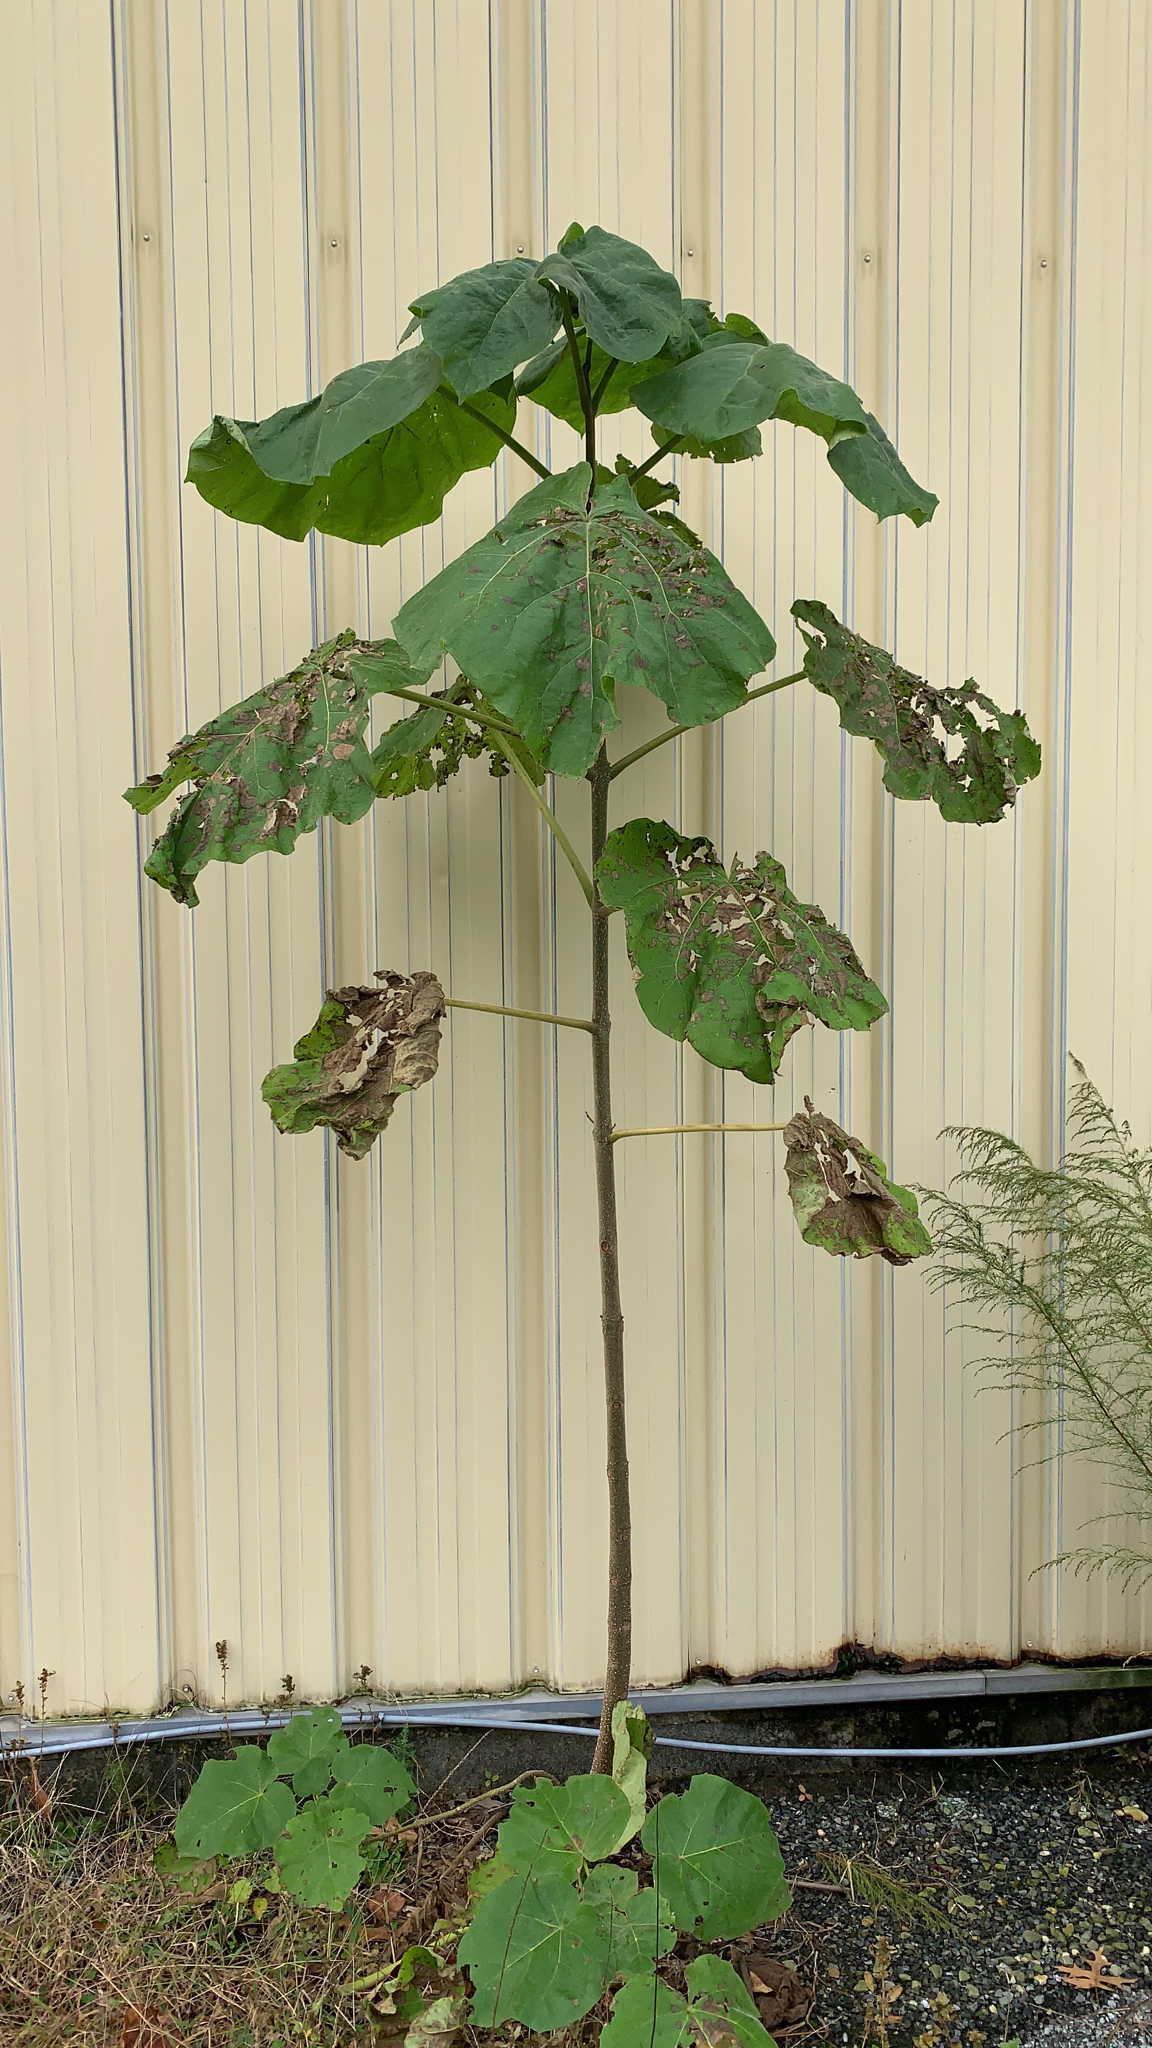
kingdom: Plantae
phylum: Tracheophyta
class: Magnoliopsida
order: Lamiales
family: Paulowniaceae
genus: Paulownia
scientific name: Paulownia tomentosa
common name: Foxglove-tree
